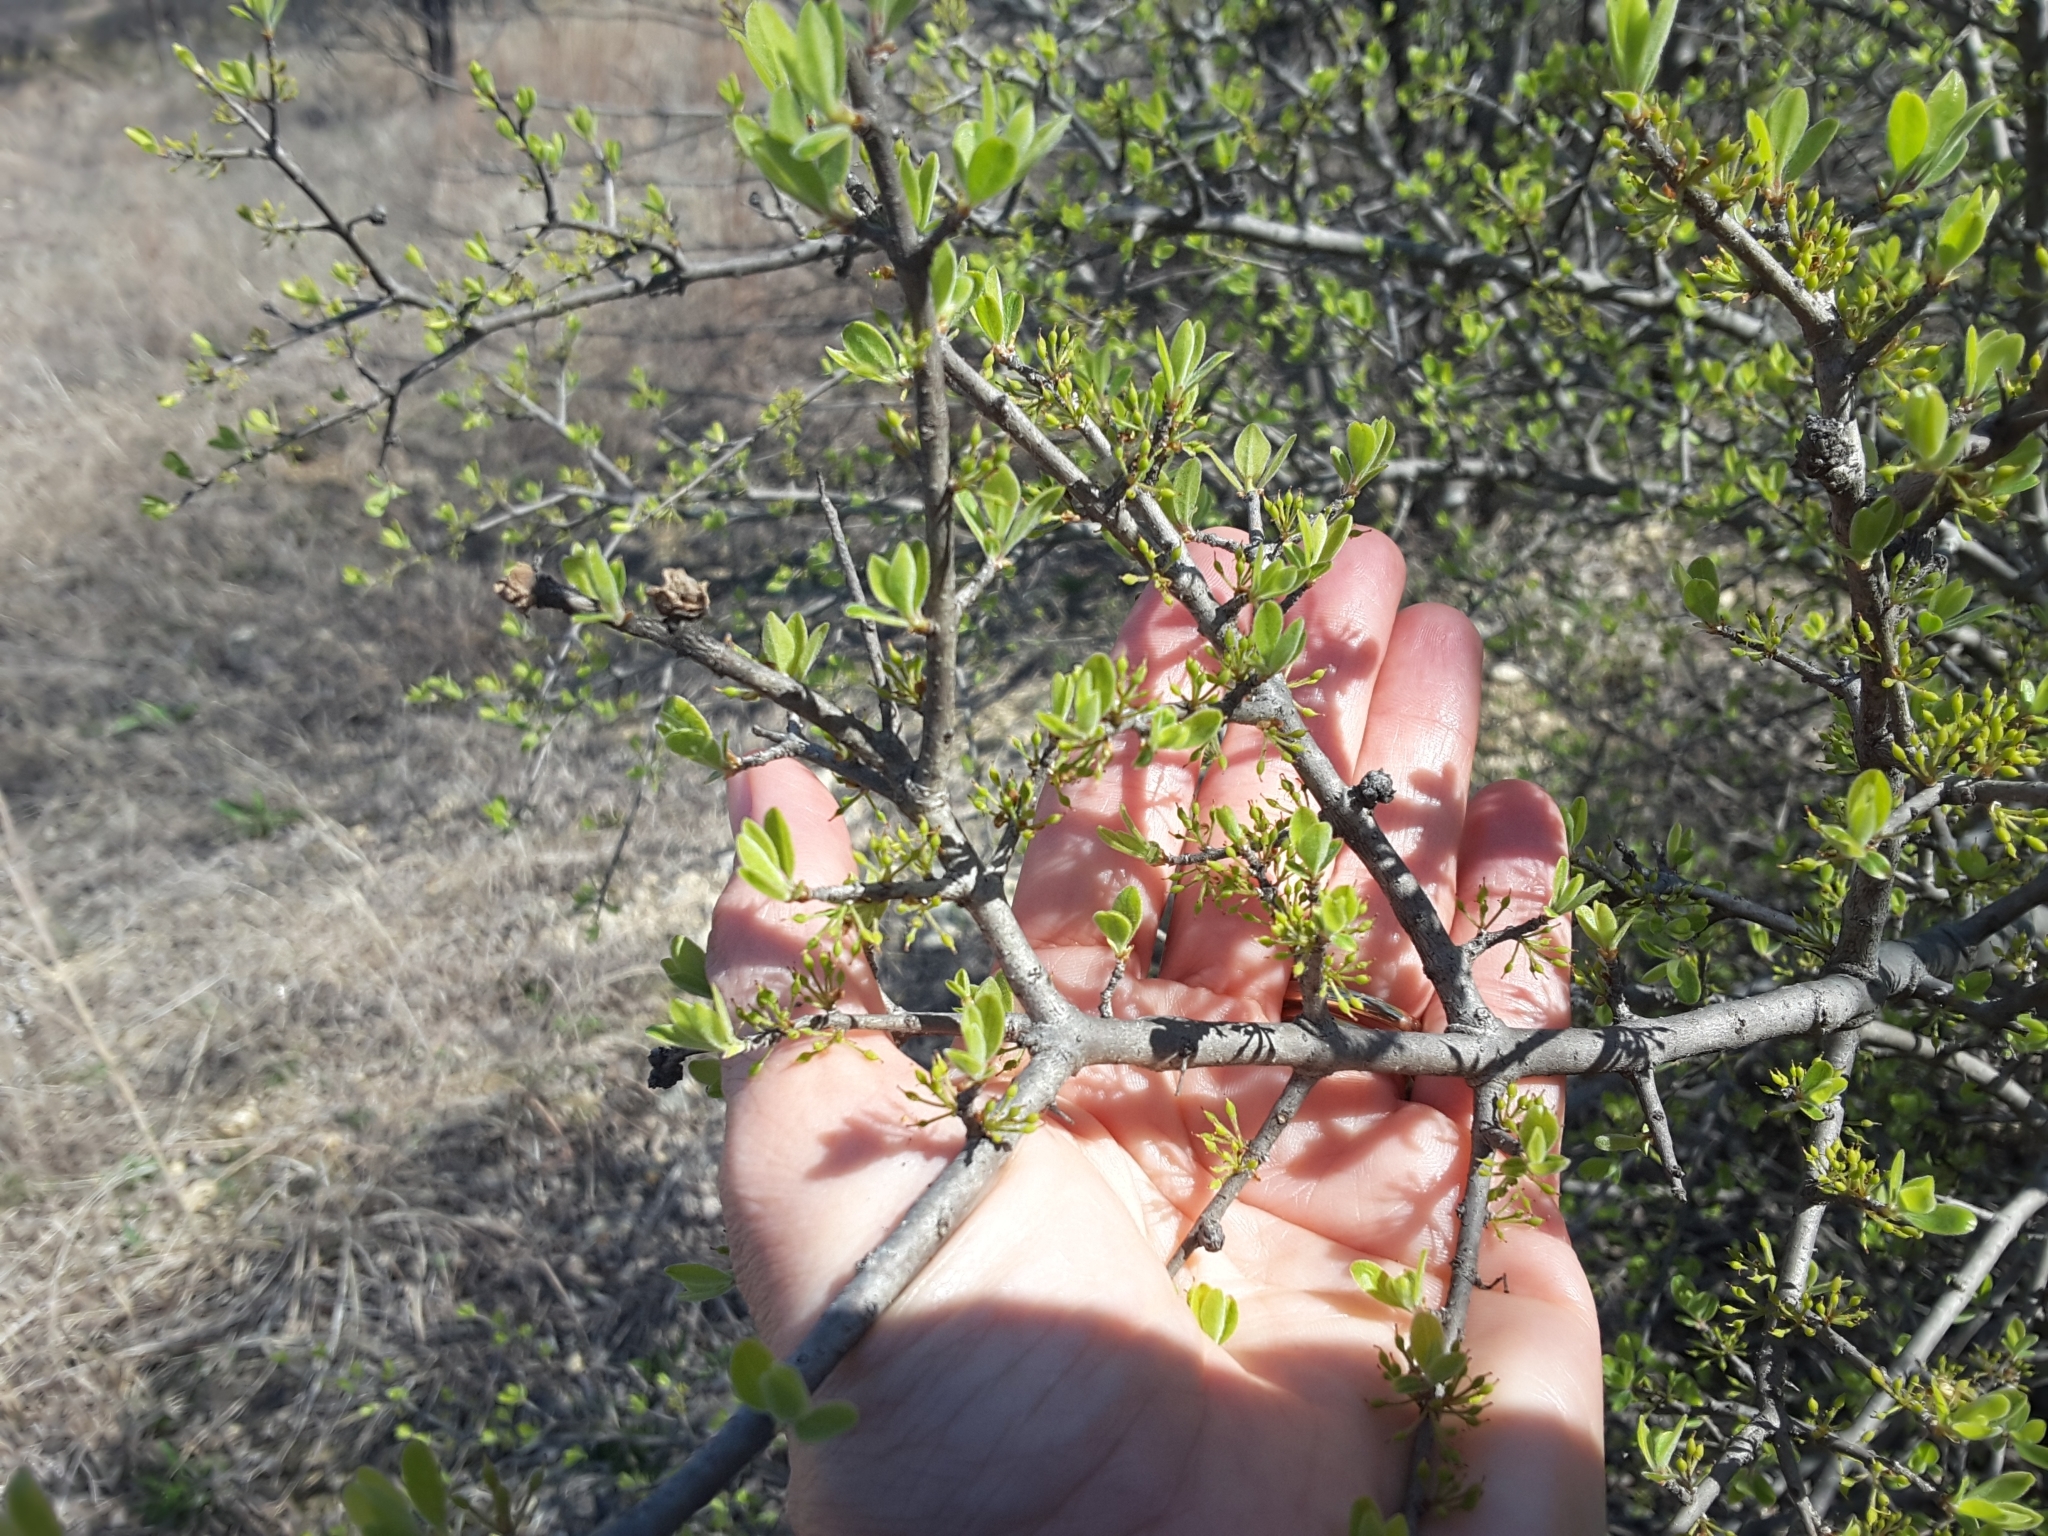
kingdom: Plantae
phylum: Tracheophyta
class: Magnoliopsida
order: Lamiales
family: Oleaceae
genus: Forestiera
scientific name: Forestiera pubescens
